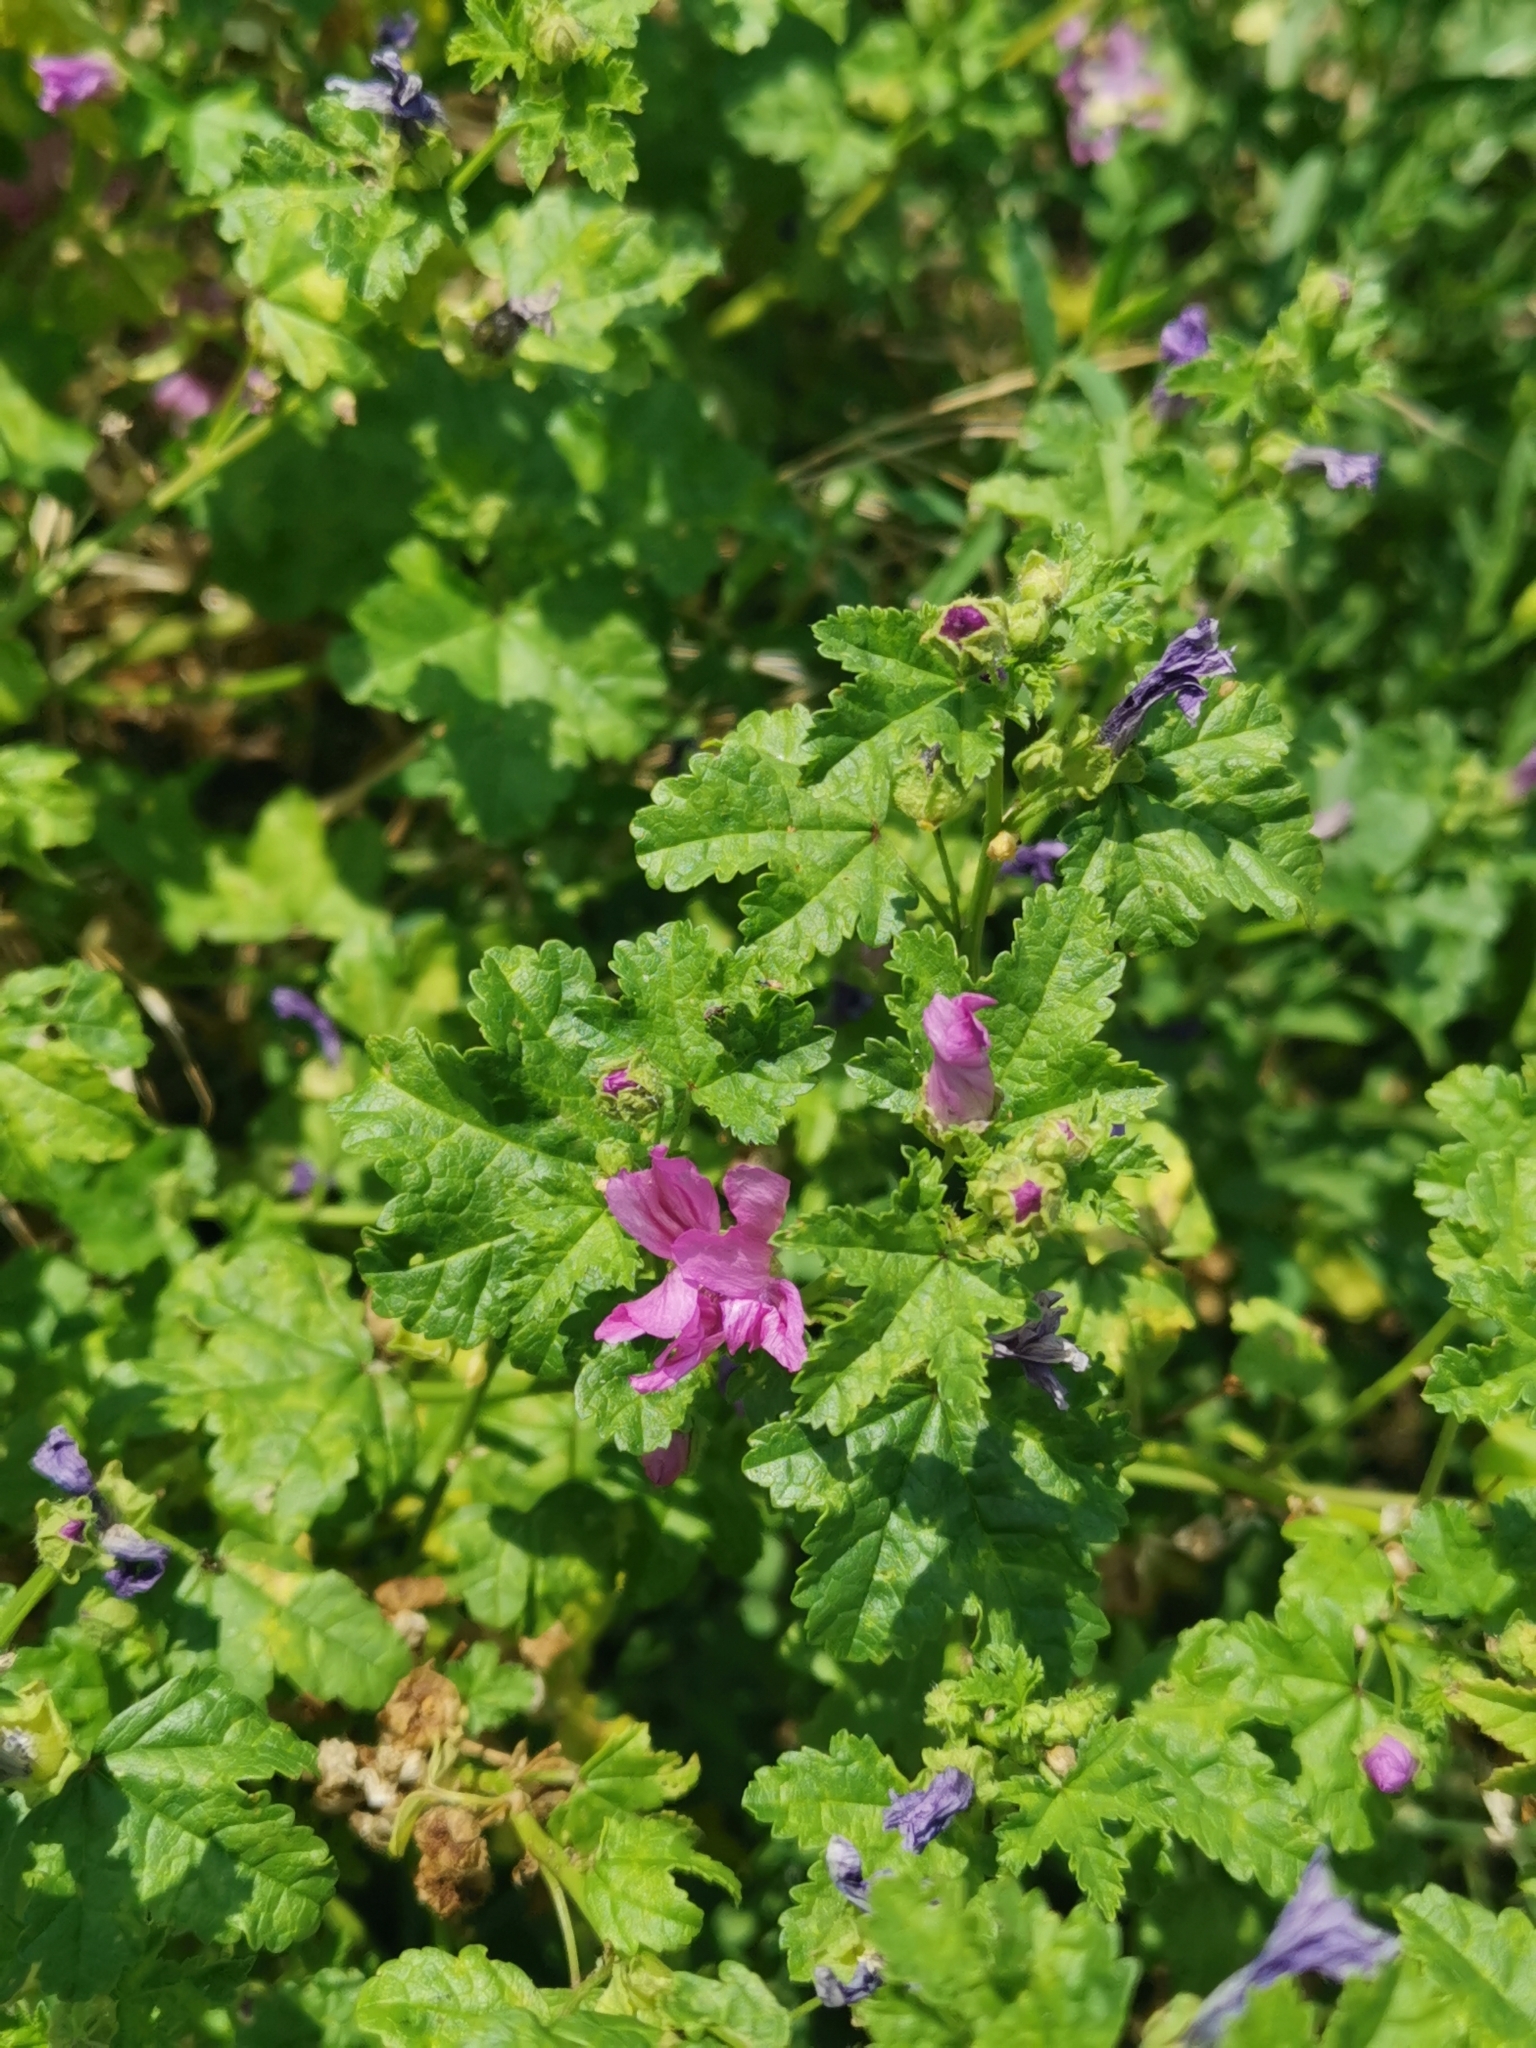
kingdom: Plantae
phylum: Tracheophyta
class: Magnoliopsida
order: Malvales
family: Malvaceae
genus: Malva
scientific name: Malva sylvestris
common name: Common mallow
